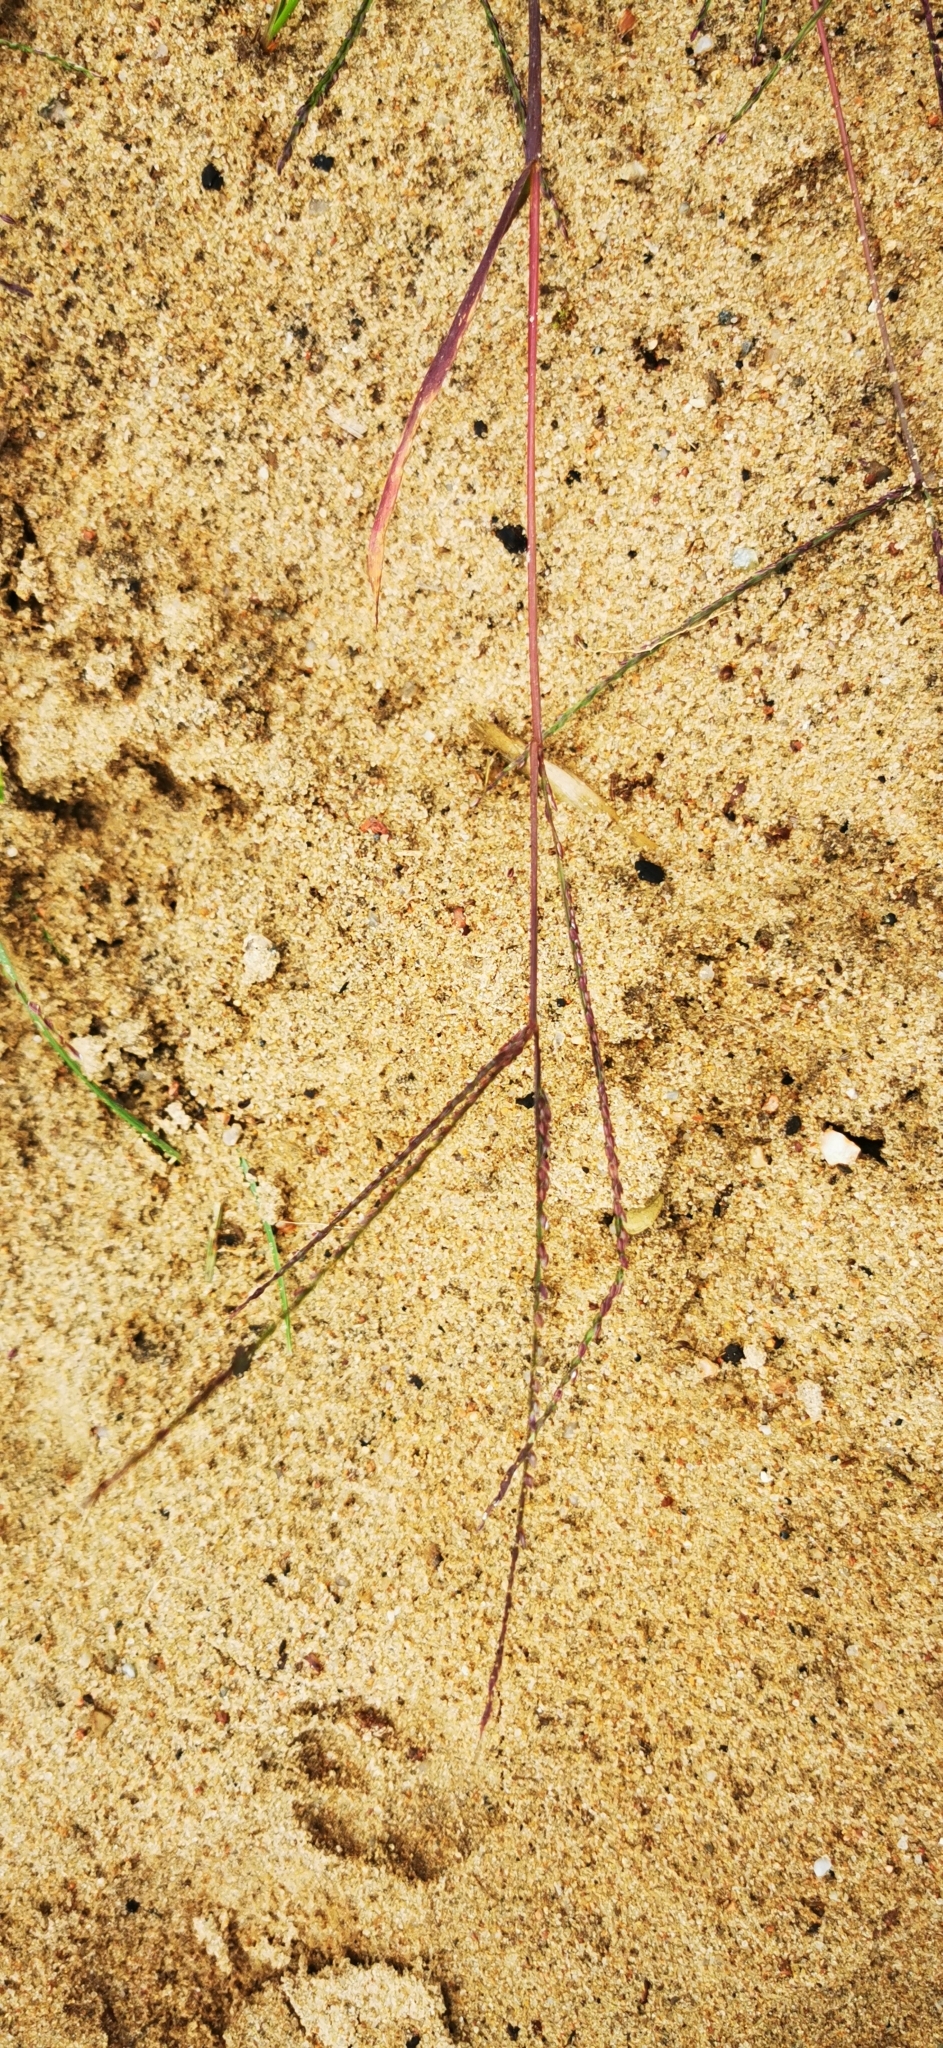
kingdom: Plantae
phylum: Tracheophyta
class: Liliopsida
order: Poales
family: Poaceae
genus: Digitaria
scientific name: Digitaria ischaemum
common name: Smooth crabgrass
